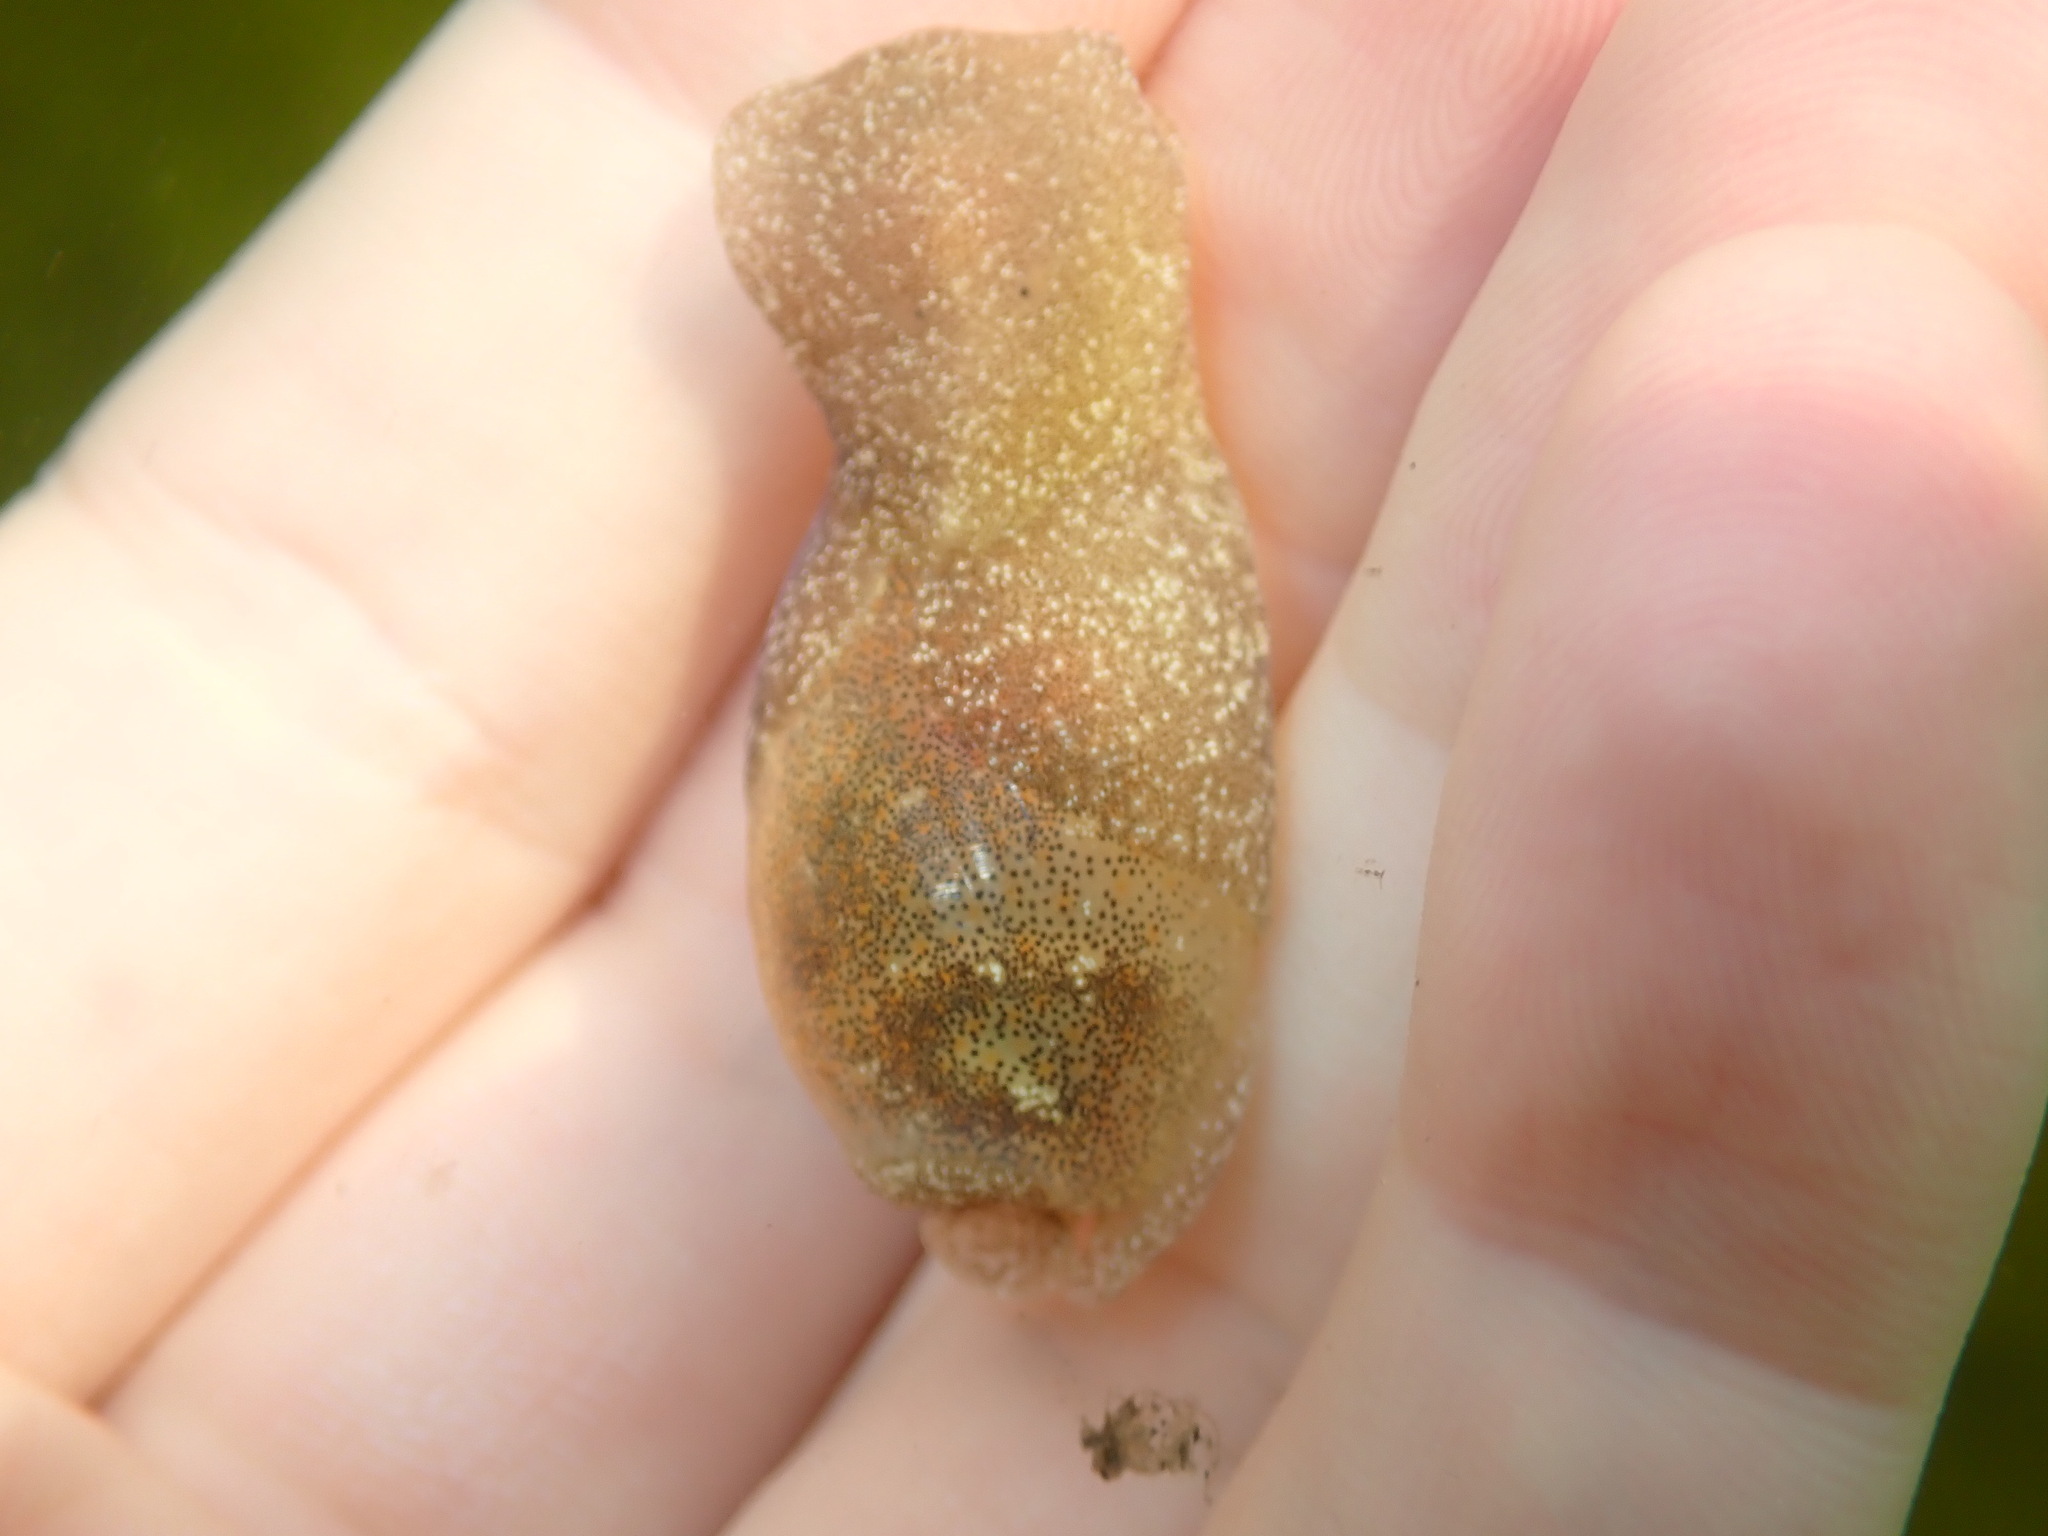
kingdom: Animalia
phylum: Mollusca
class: Gastropoda
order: Cephalaspidea
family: Haminoeidae
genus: Haminoea
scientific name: Haminoea vesicula
